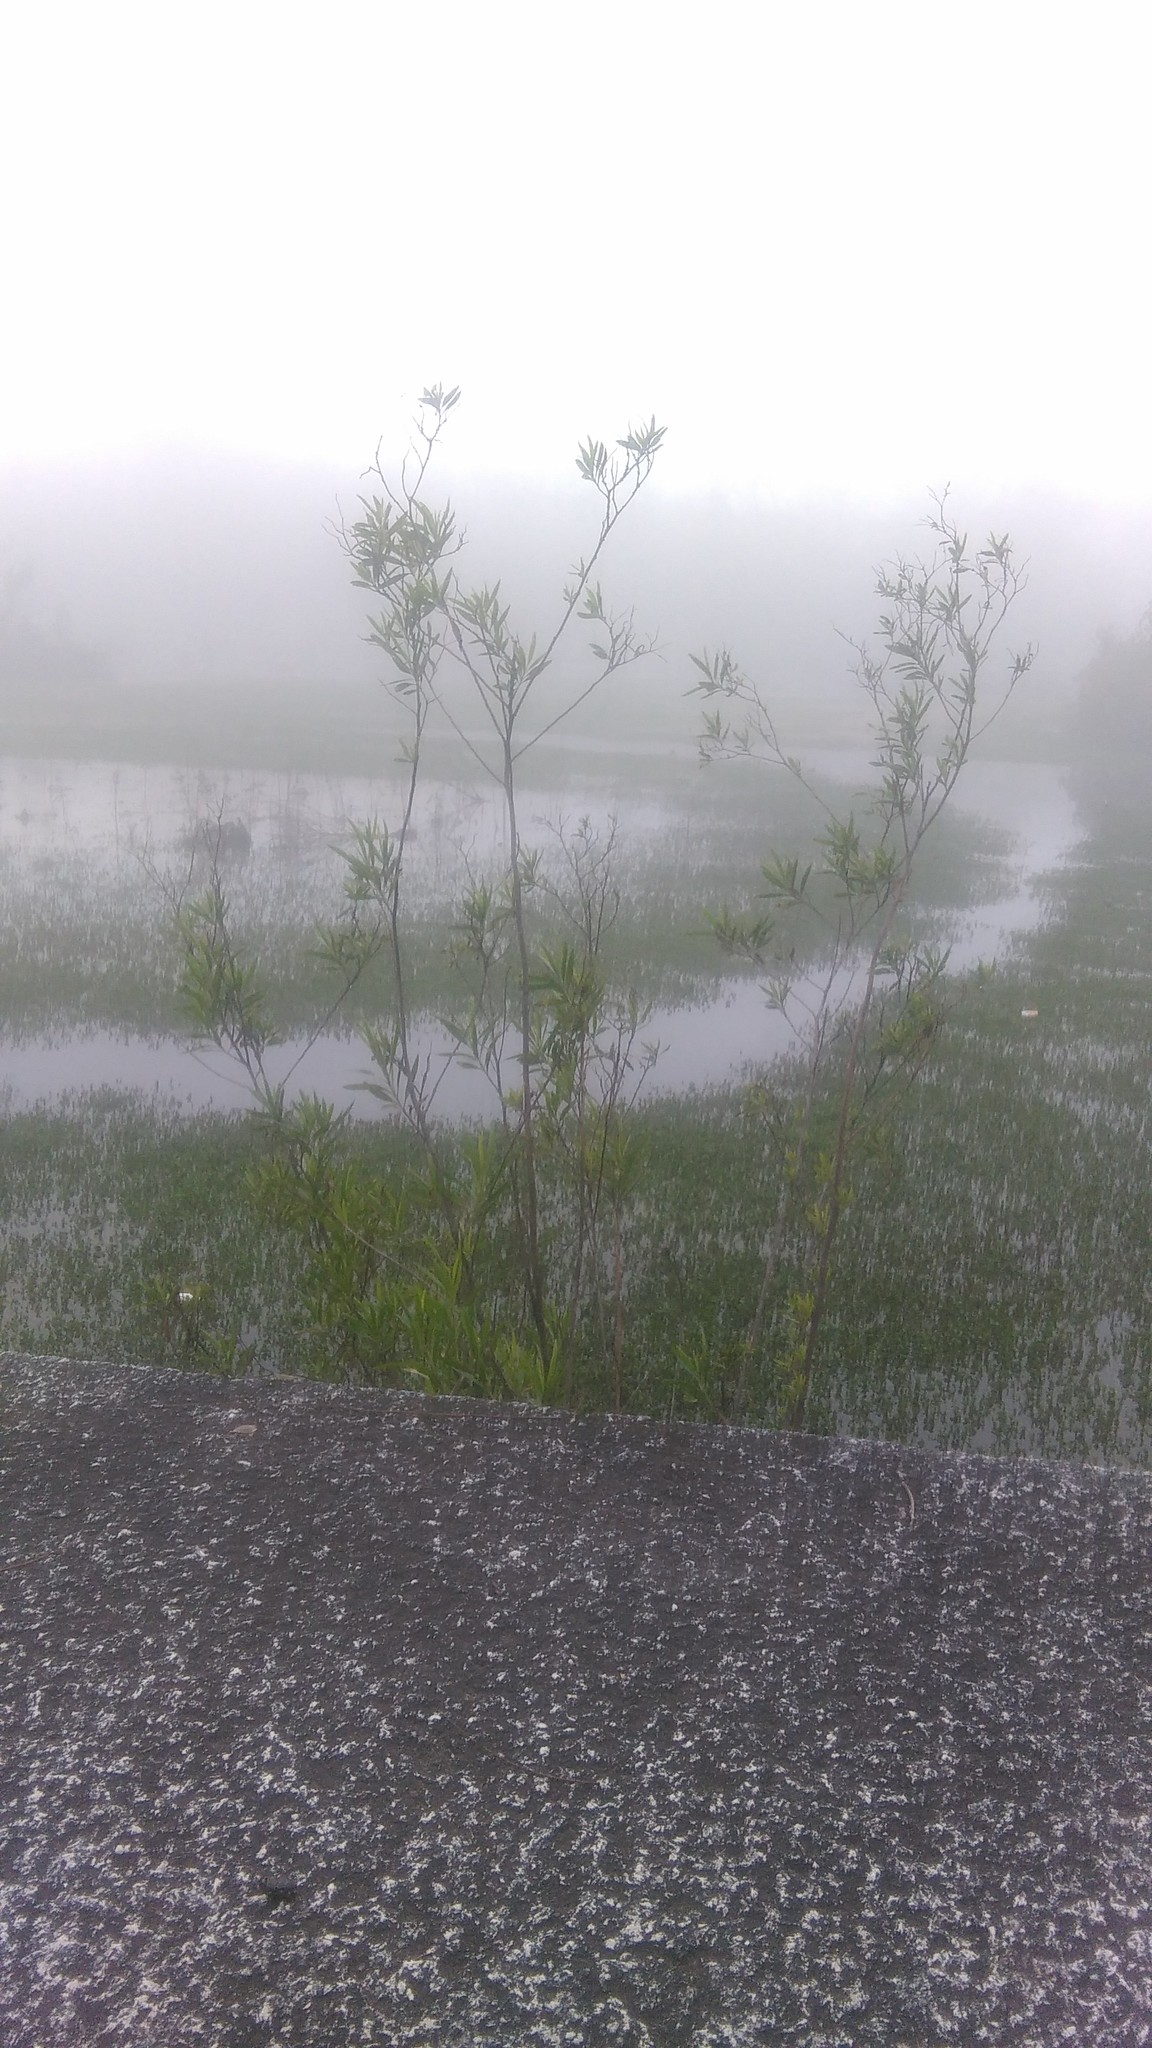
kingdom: Plantae
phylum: Tracheophyta
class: Magnoliopsida
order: Asterales
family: Asteraceae
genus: Baccharis
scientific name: Baccharis salicifolia
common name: Sticky baccharis
